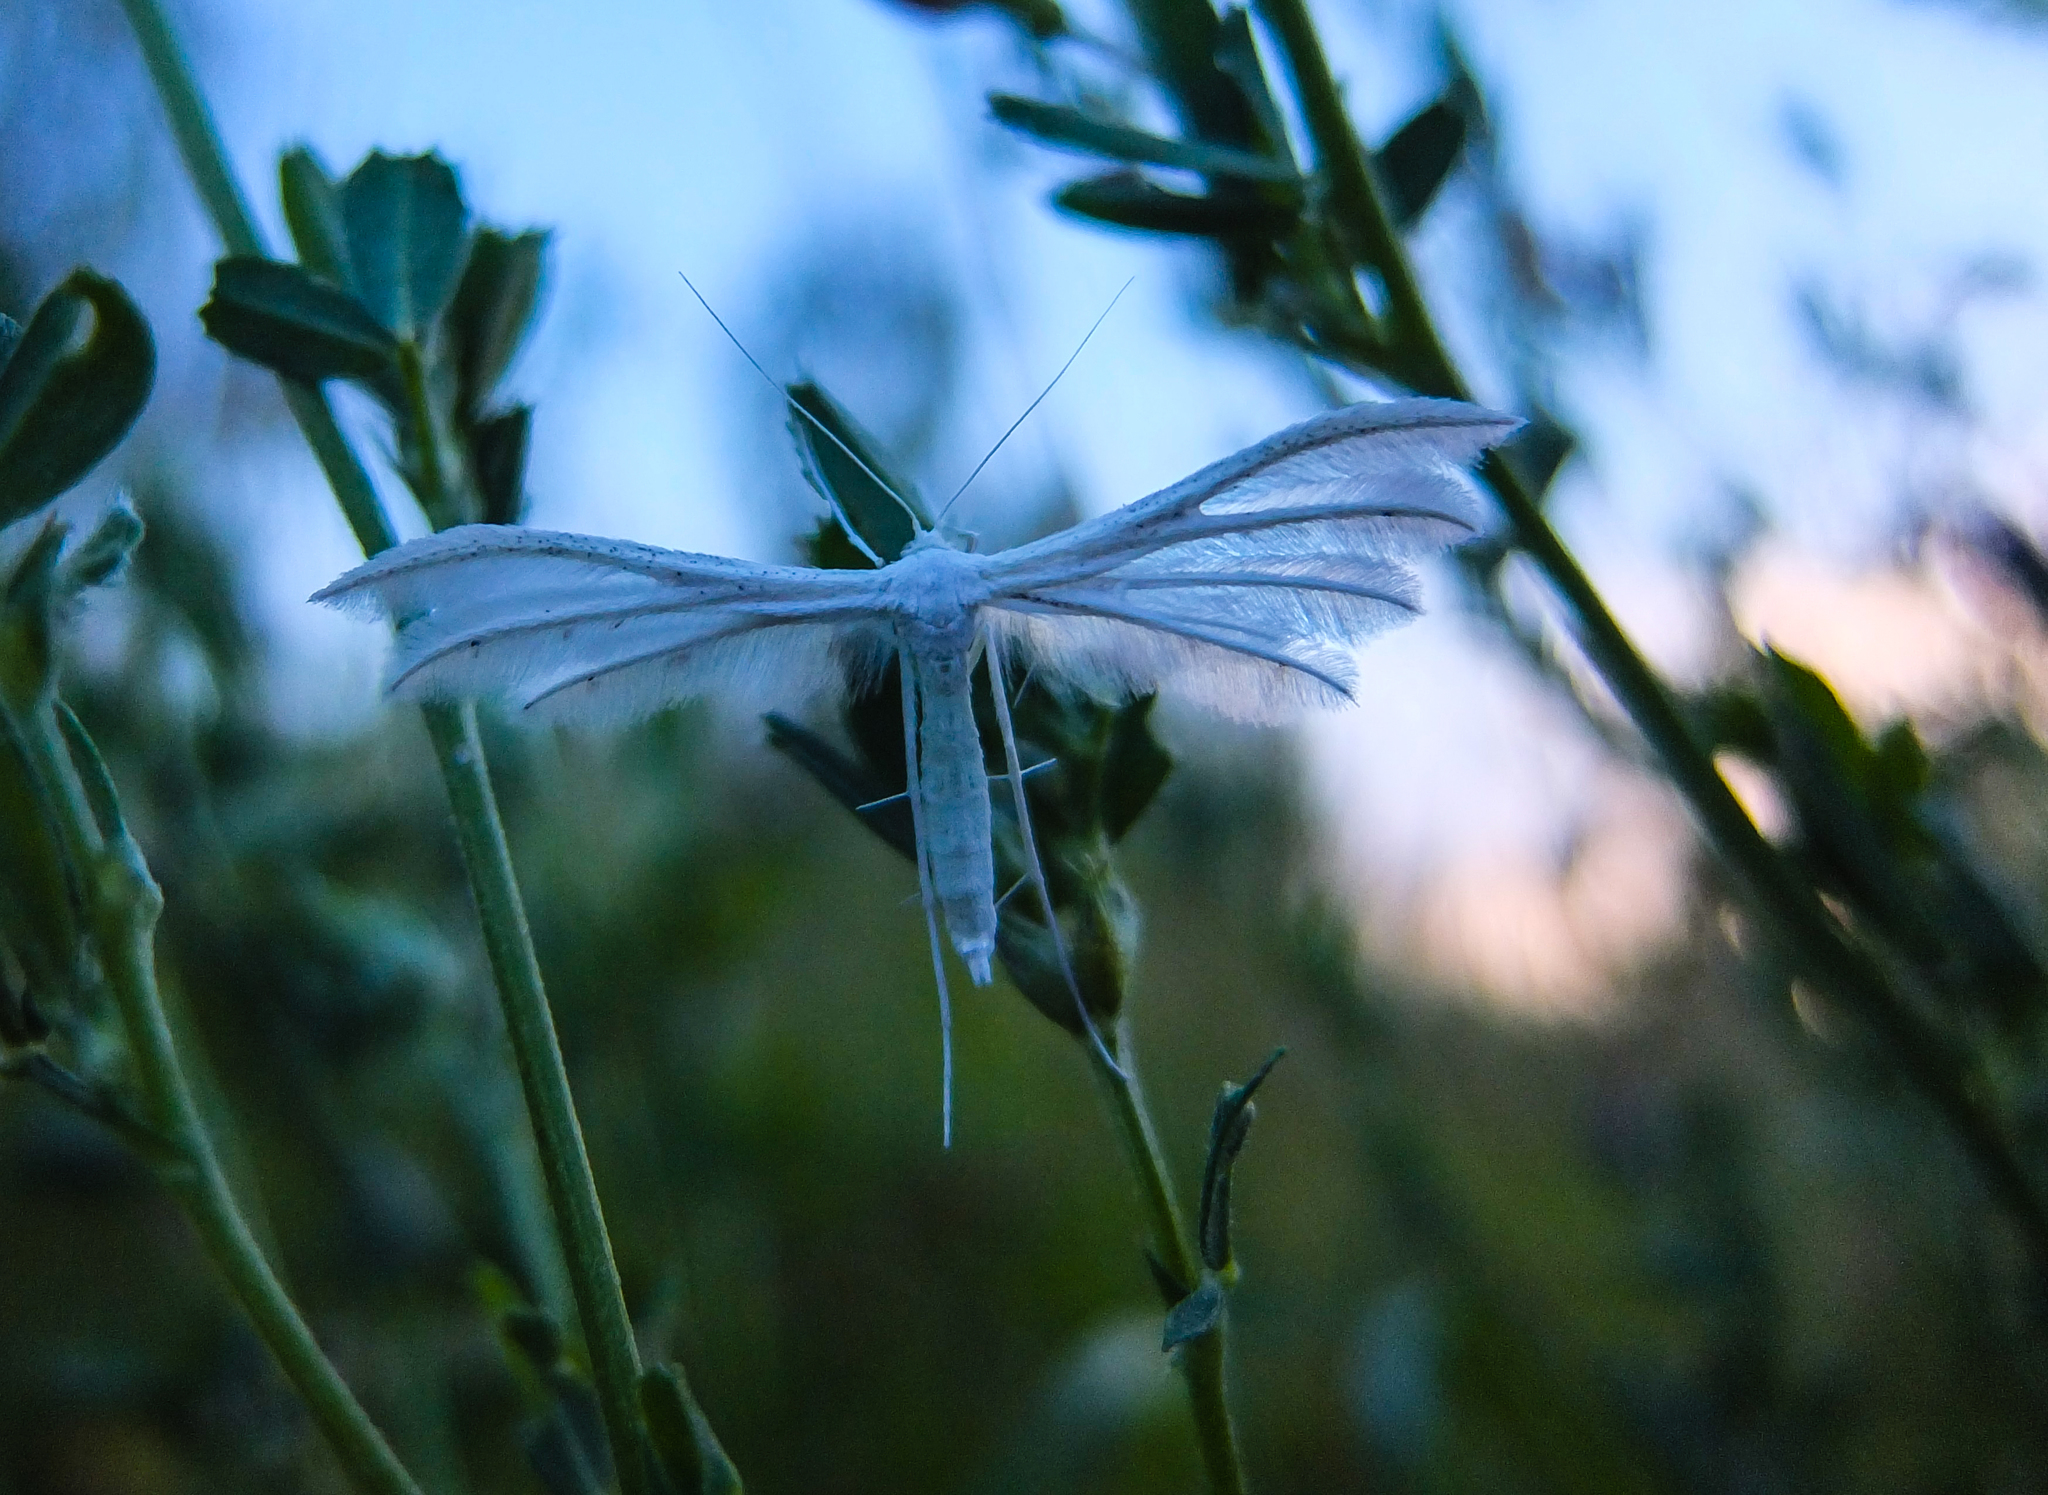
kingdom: Animalia
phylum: Arthropoda
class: Insecta
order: Lepidoptera
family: Pterophoridae
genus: Pterophorus
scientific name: Pterophorus pentadactyla
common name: White plume moth
